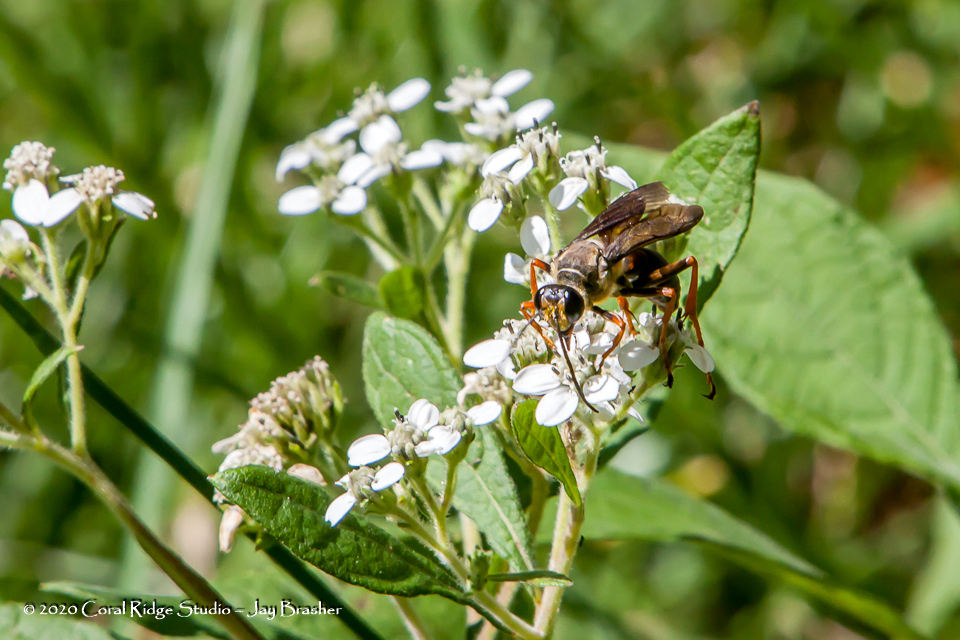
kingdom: Animalia
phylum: Arthropoda
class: Insecta
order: Hymenoptera
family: Sphecidae
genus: Sphex
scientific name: Sphex ichneumoneus
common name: Great golden digger wasp
